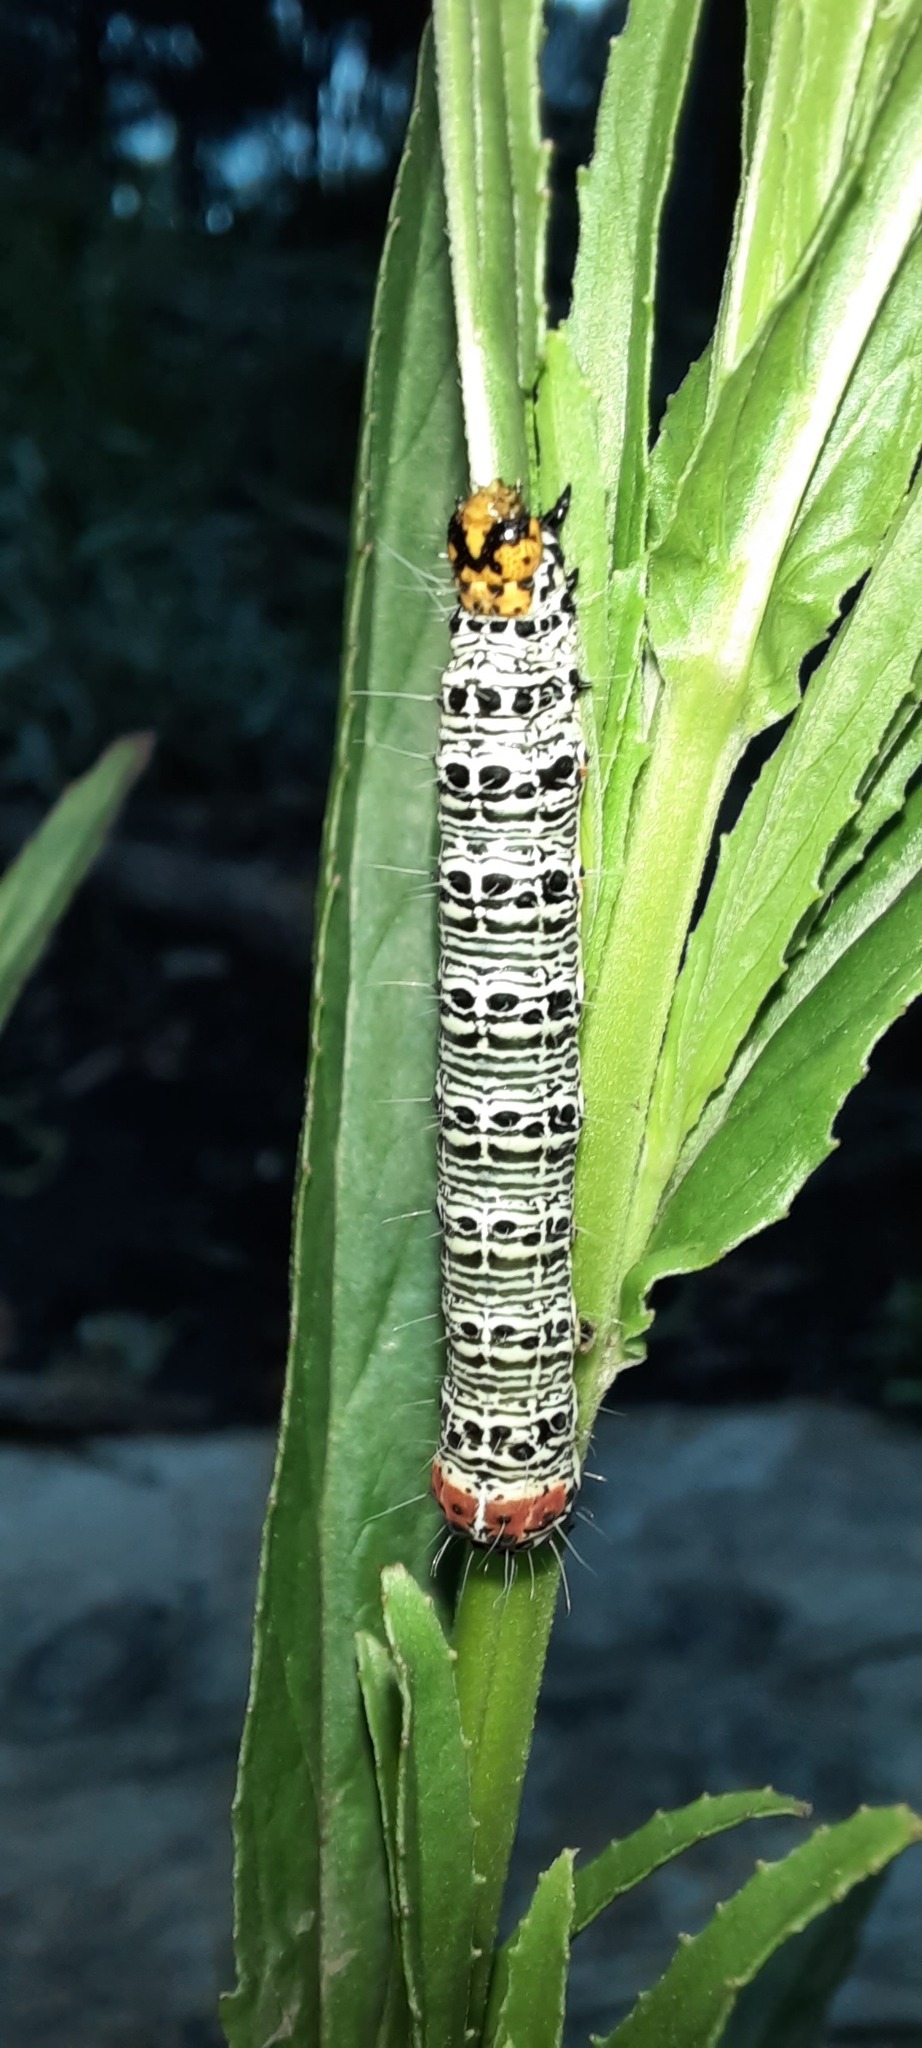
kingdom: Animalia
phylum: Arthropoda
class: Insecta
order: Lepidoptera
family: Noctuidae
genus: Phalaenoides
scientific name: Phalaenoides glycinae
